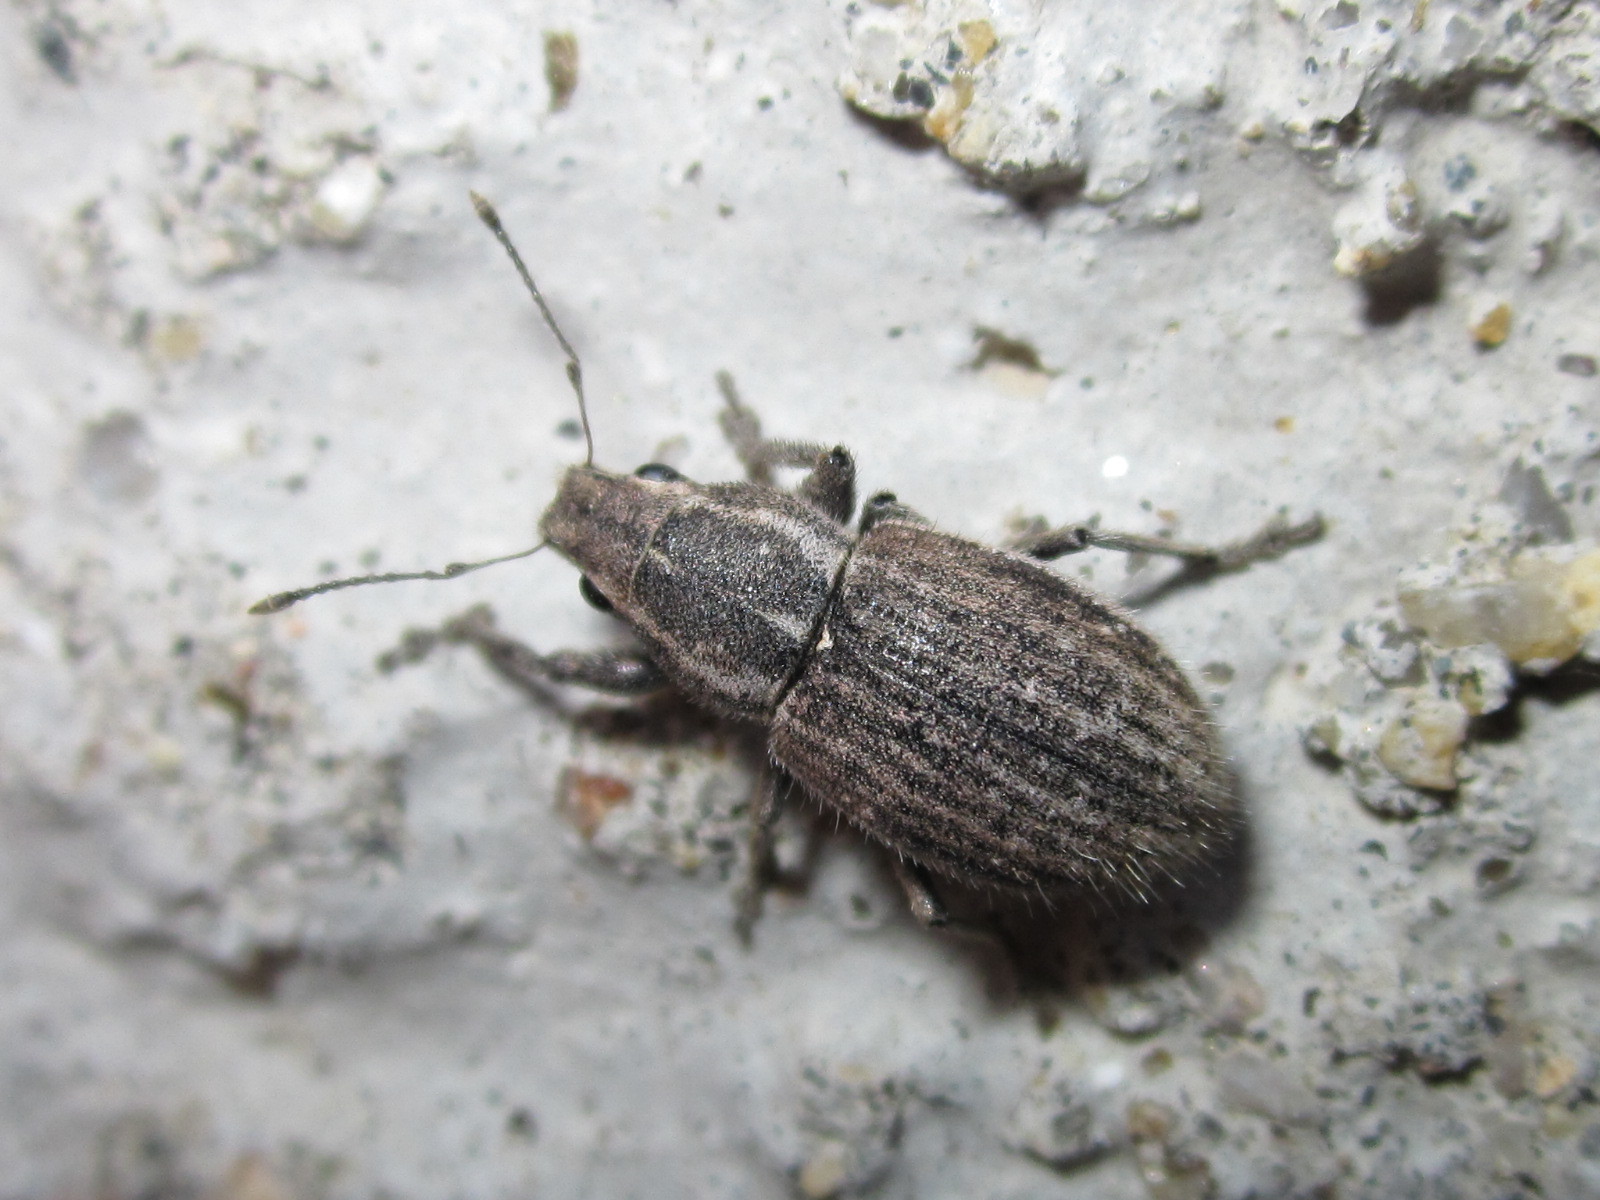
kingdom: Animalia
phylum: Arthropoda
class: Insecta
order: Coleoptera
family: Curculionidae
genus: Naupactus
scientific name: Naupactus leucoloma
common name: Whitefringed beetle
